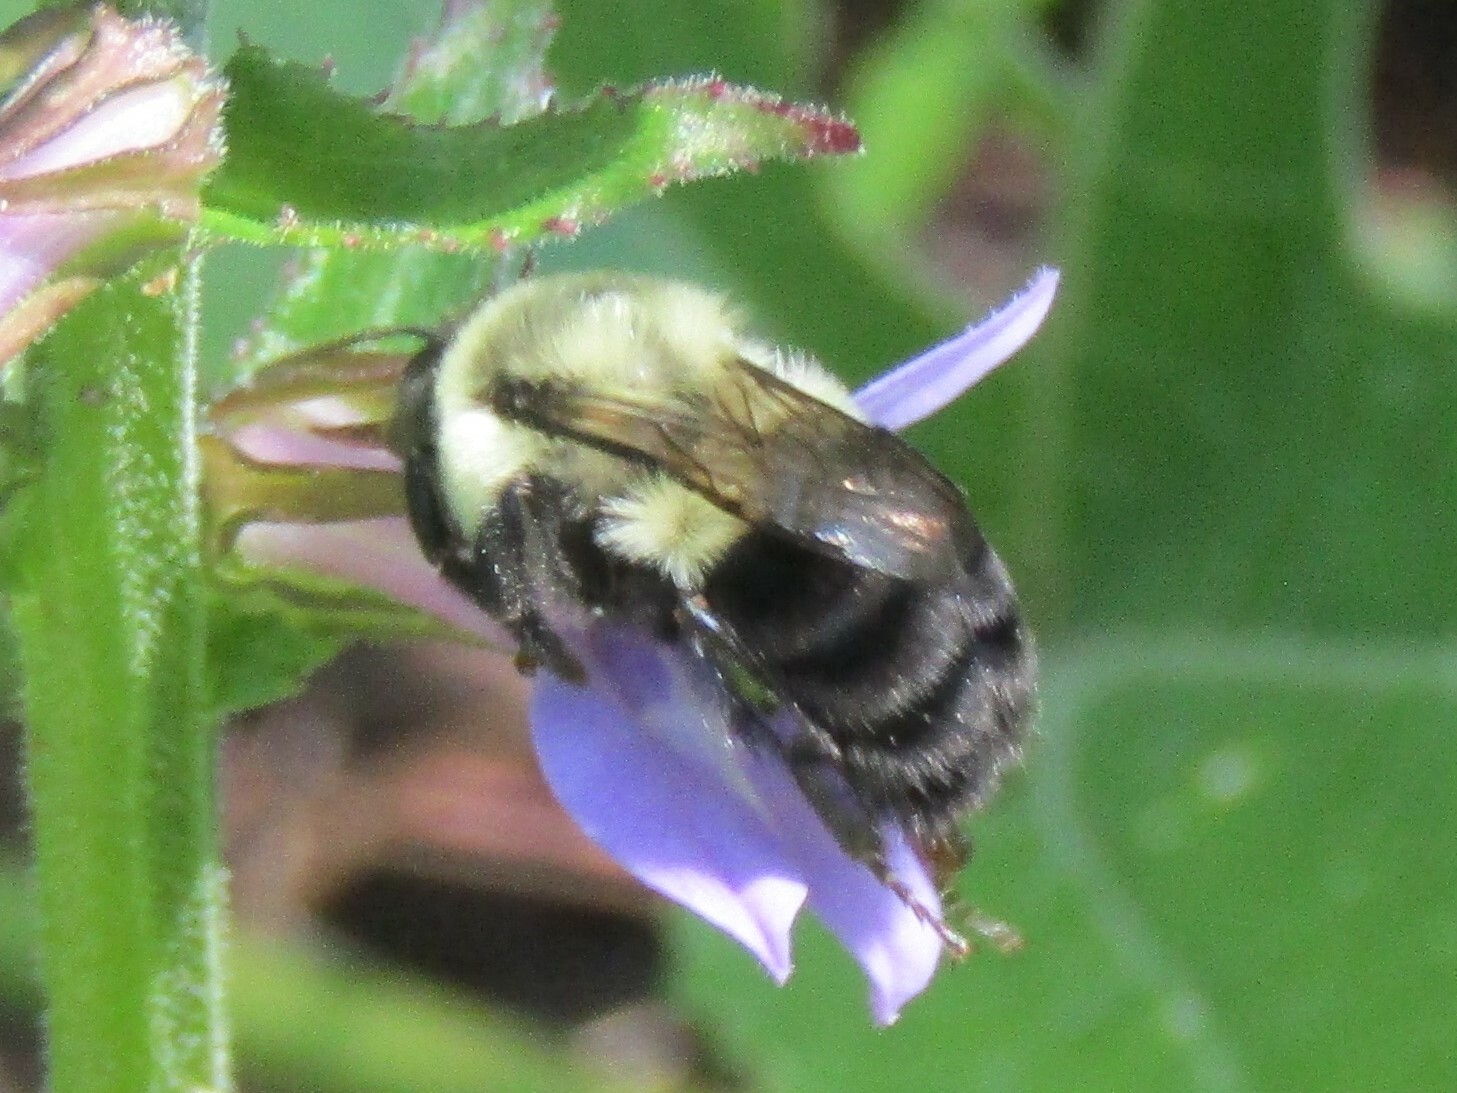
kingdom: Animalia
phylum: Arthropoda
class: Insecta
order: Hymenoptera
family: Apidae
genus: Bombus
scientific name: Bombus impatiens
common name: Common eastern bumble bee
